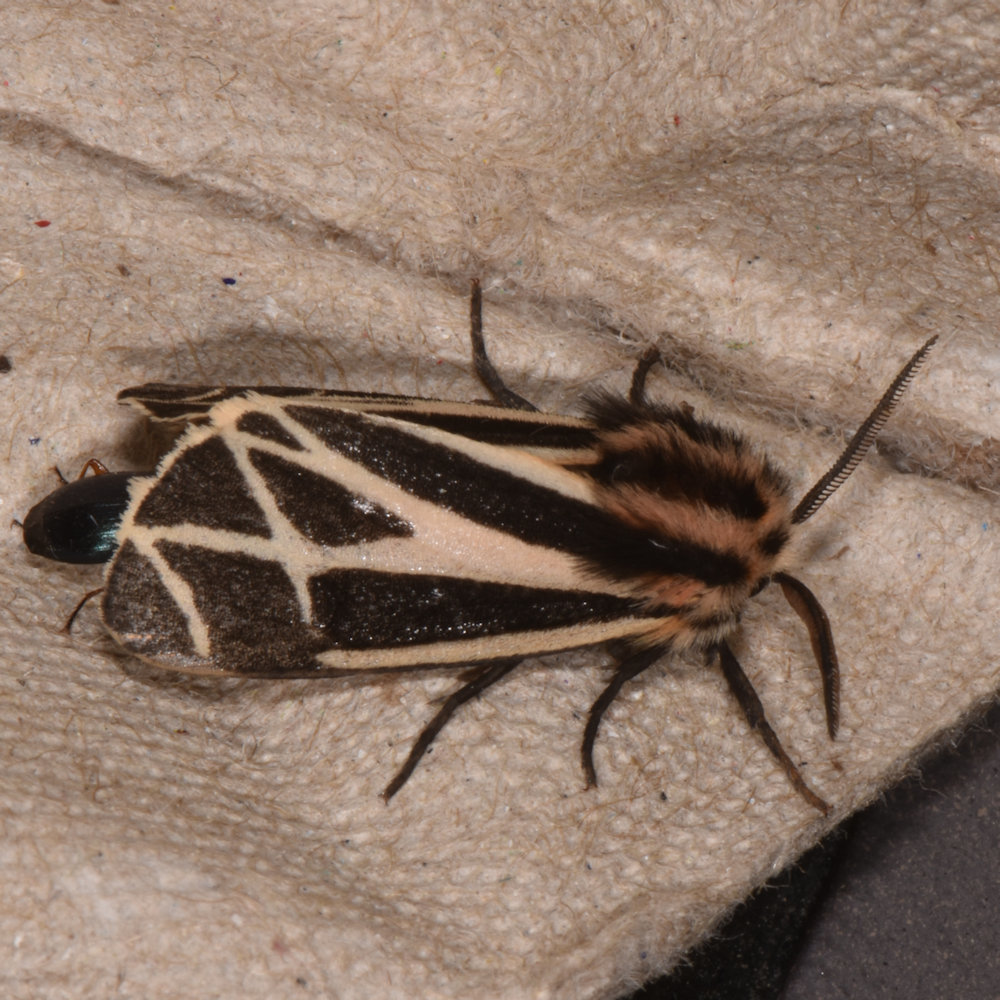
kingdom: Animalia
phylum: Arthropoda
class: Insecta
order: Lepidoptera
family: Erebidae
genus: Apantesis
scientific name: Apantesis phalerata
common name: Harnessed tiger moth
